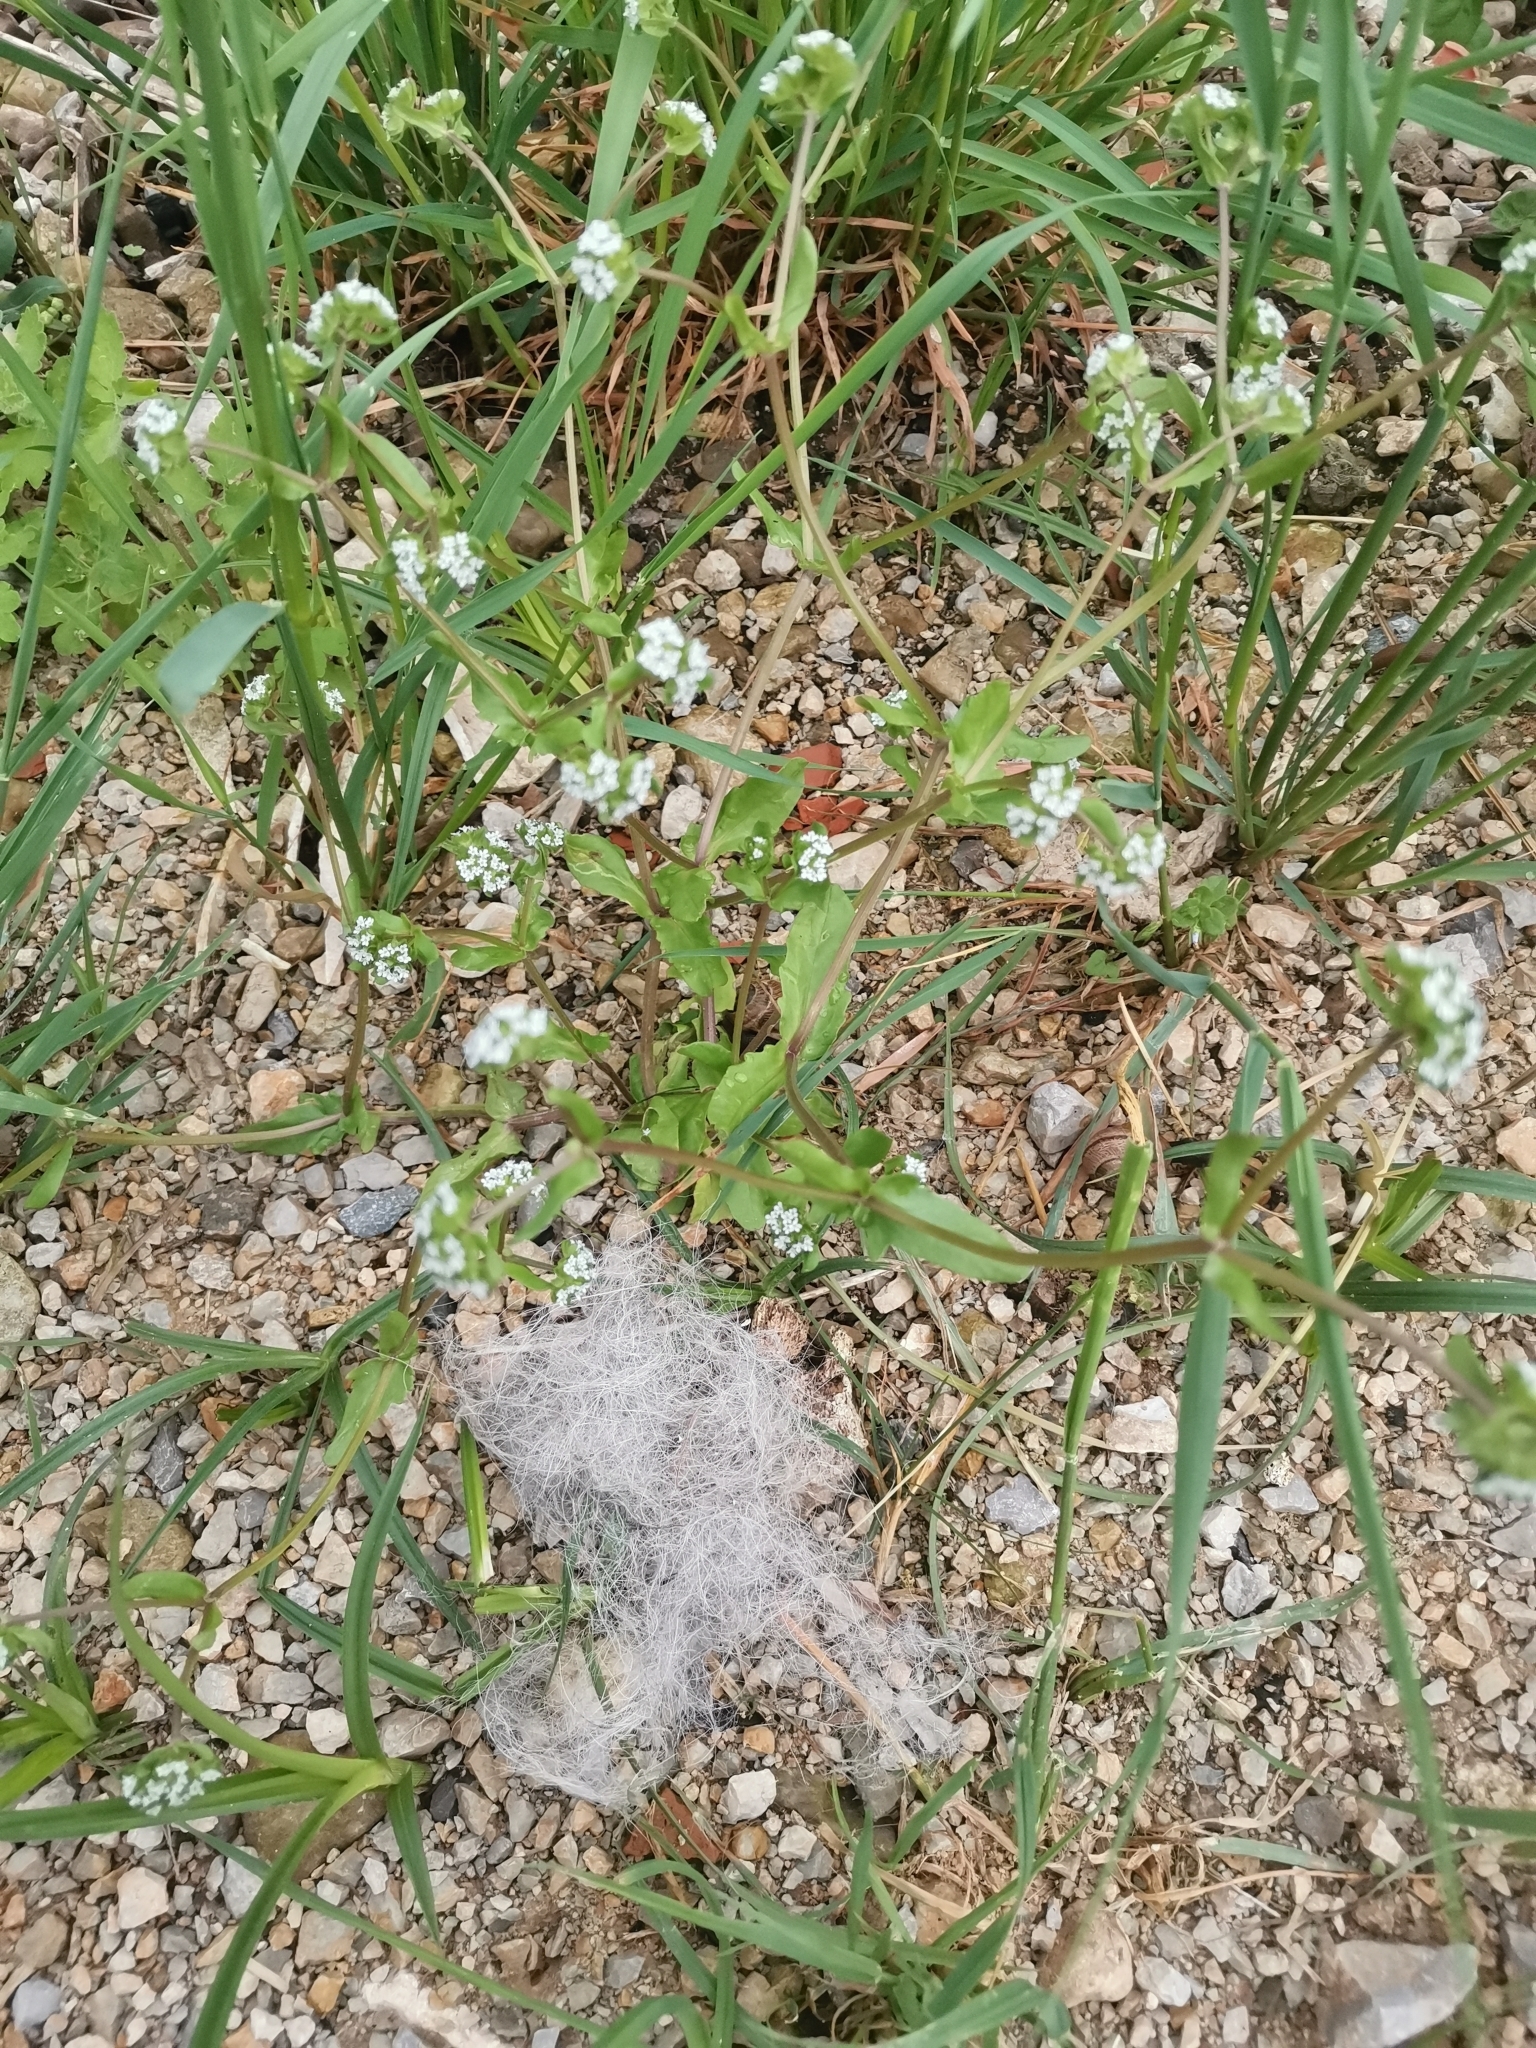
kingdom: Plantae
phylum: Tracheophyta
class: Magnoliopsida
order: Dipsacales
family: Caprifoliaceae
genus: Valerianella
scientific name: Valerianella locusta
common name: Common cornsalad
